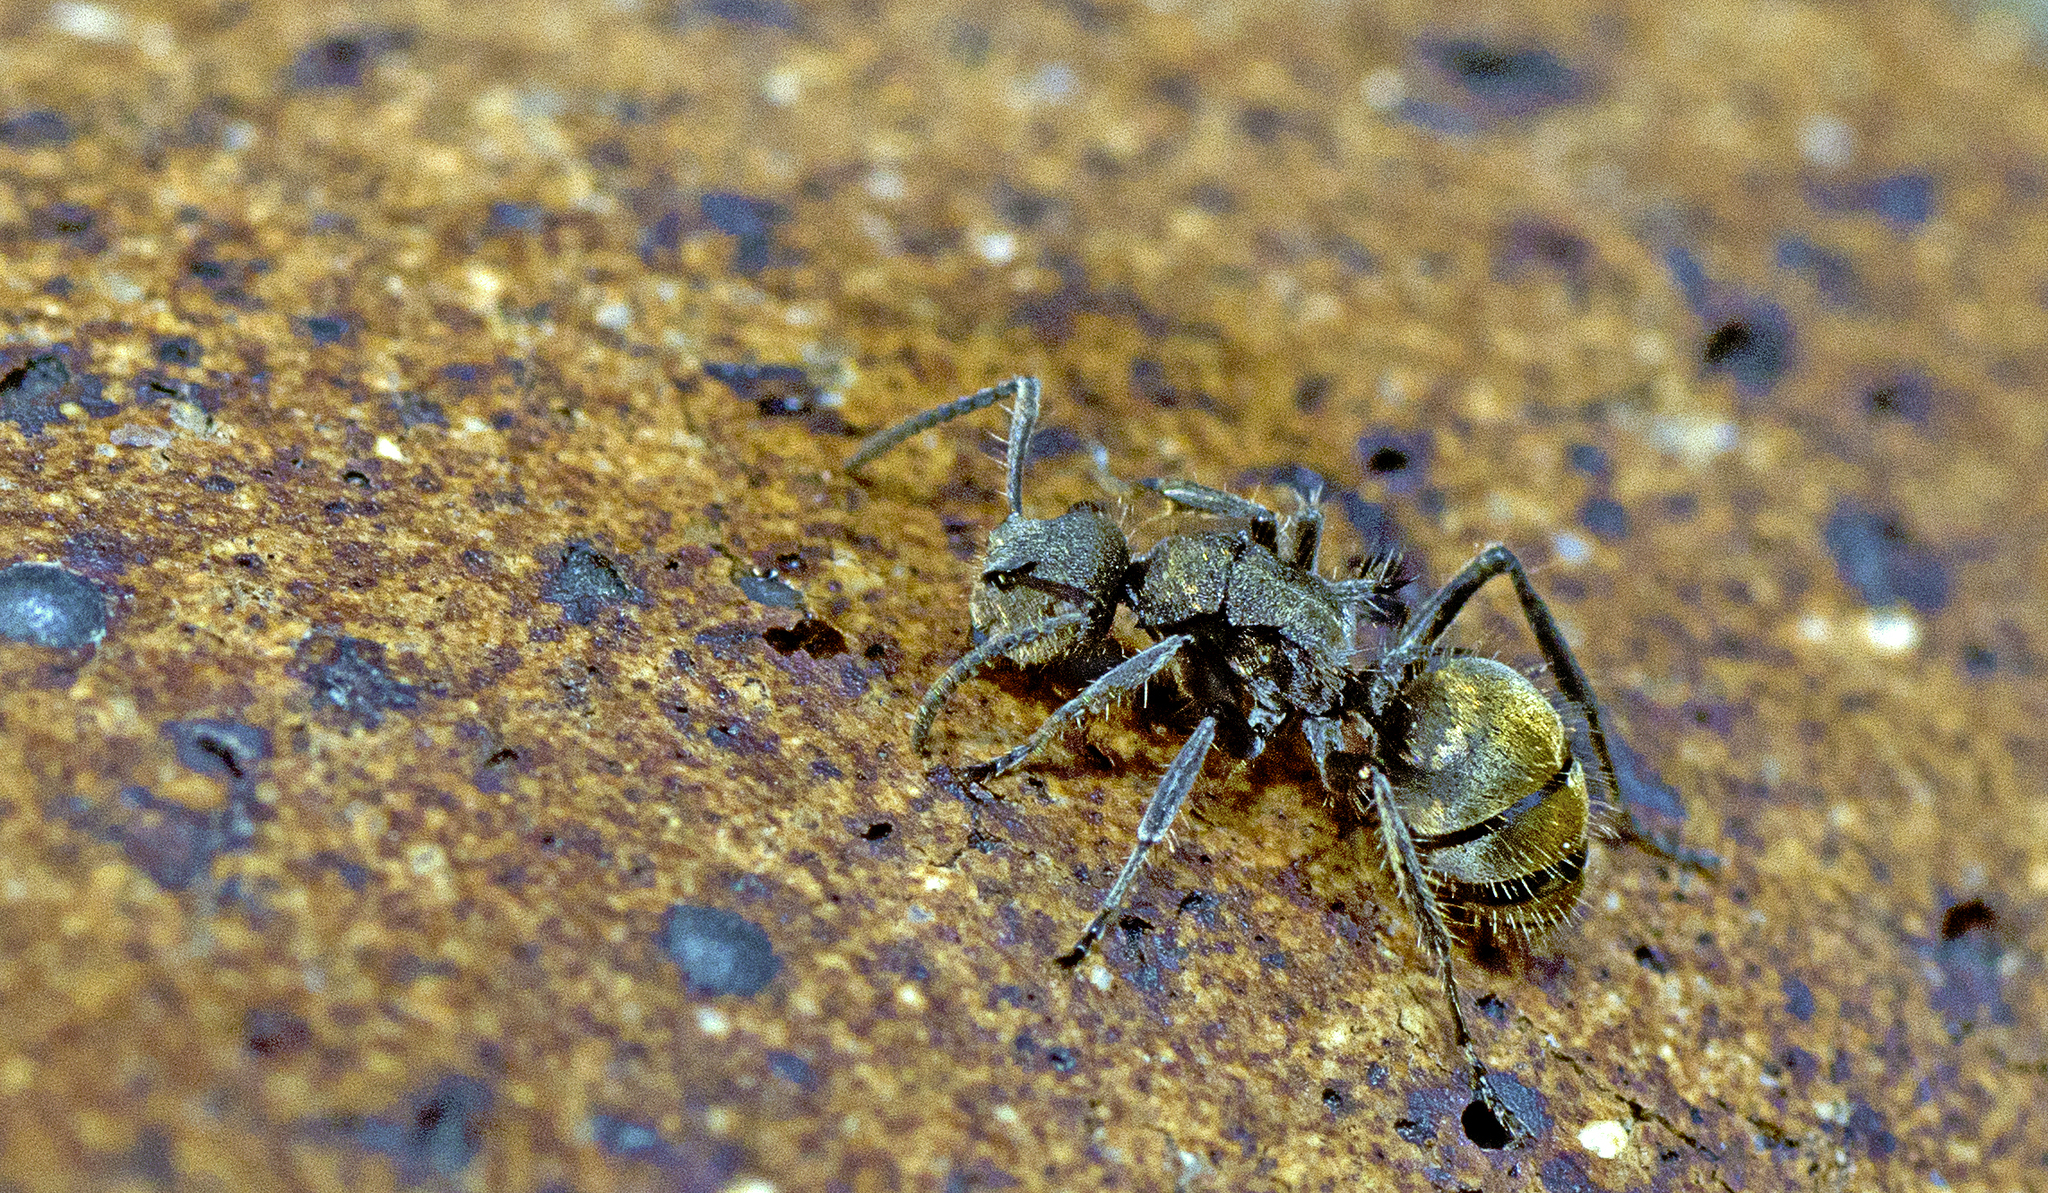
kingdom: Animalia
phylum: Arthropoda
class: Insecta
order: Hymenoptera
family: Formicidae
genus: Polyrhachis
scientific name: Polyrhachis vermiculosa
